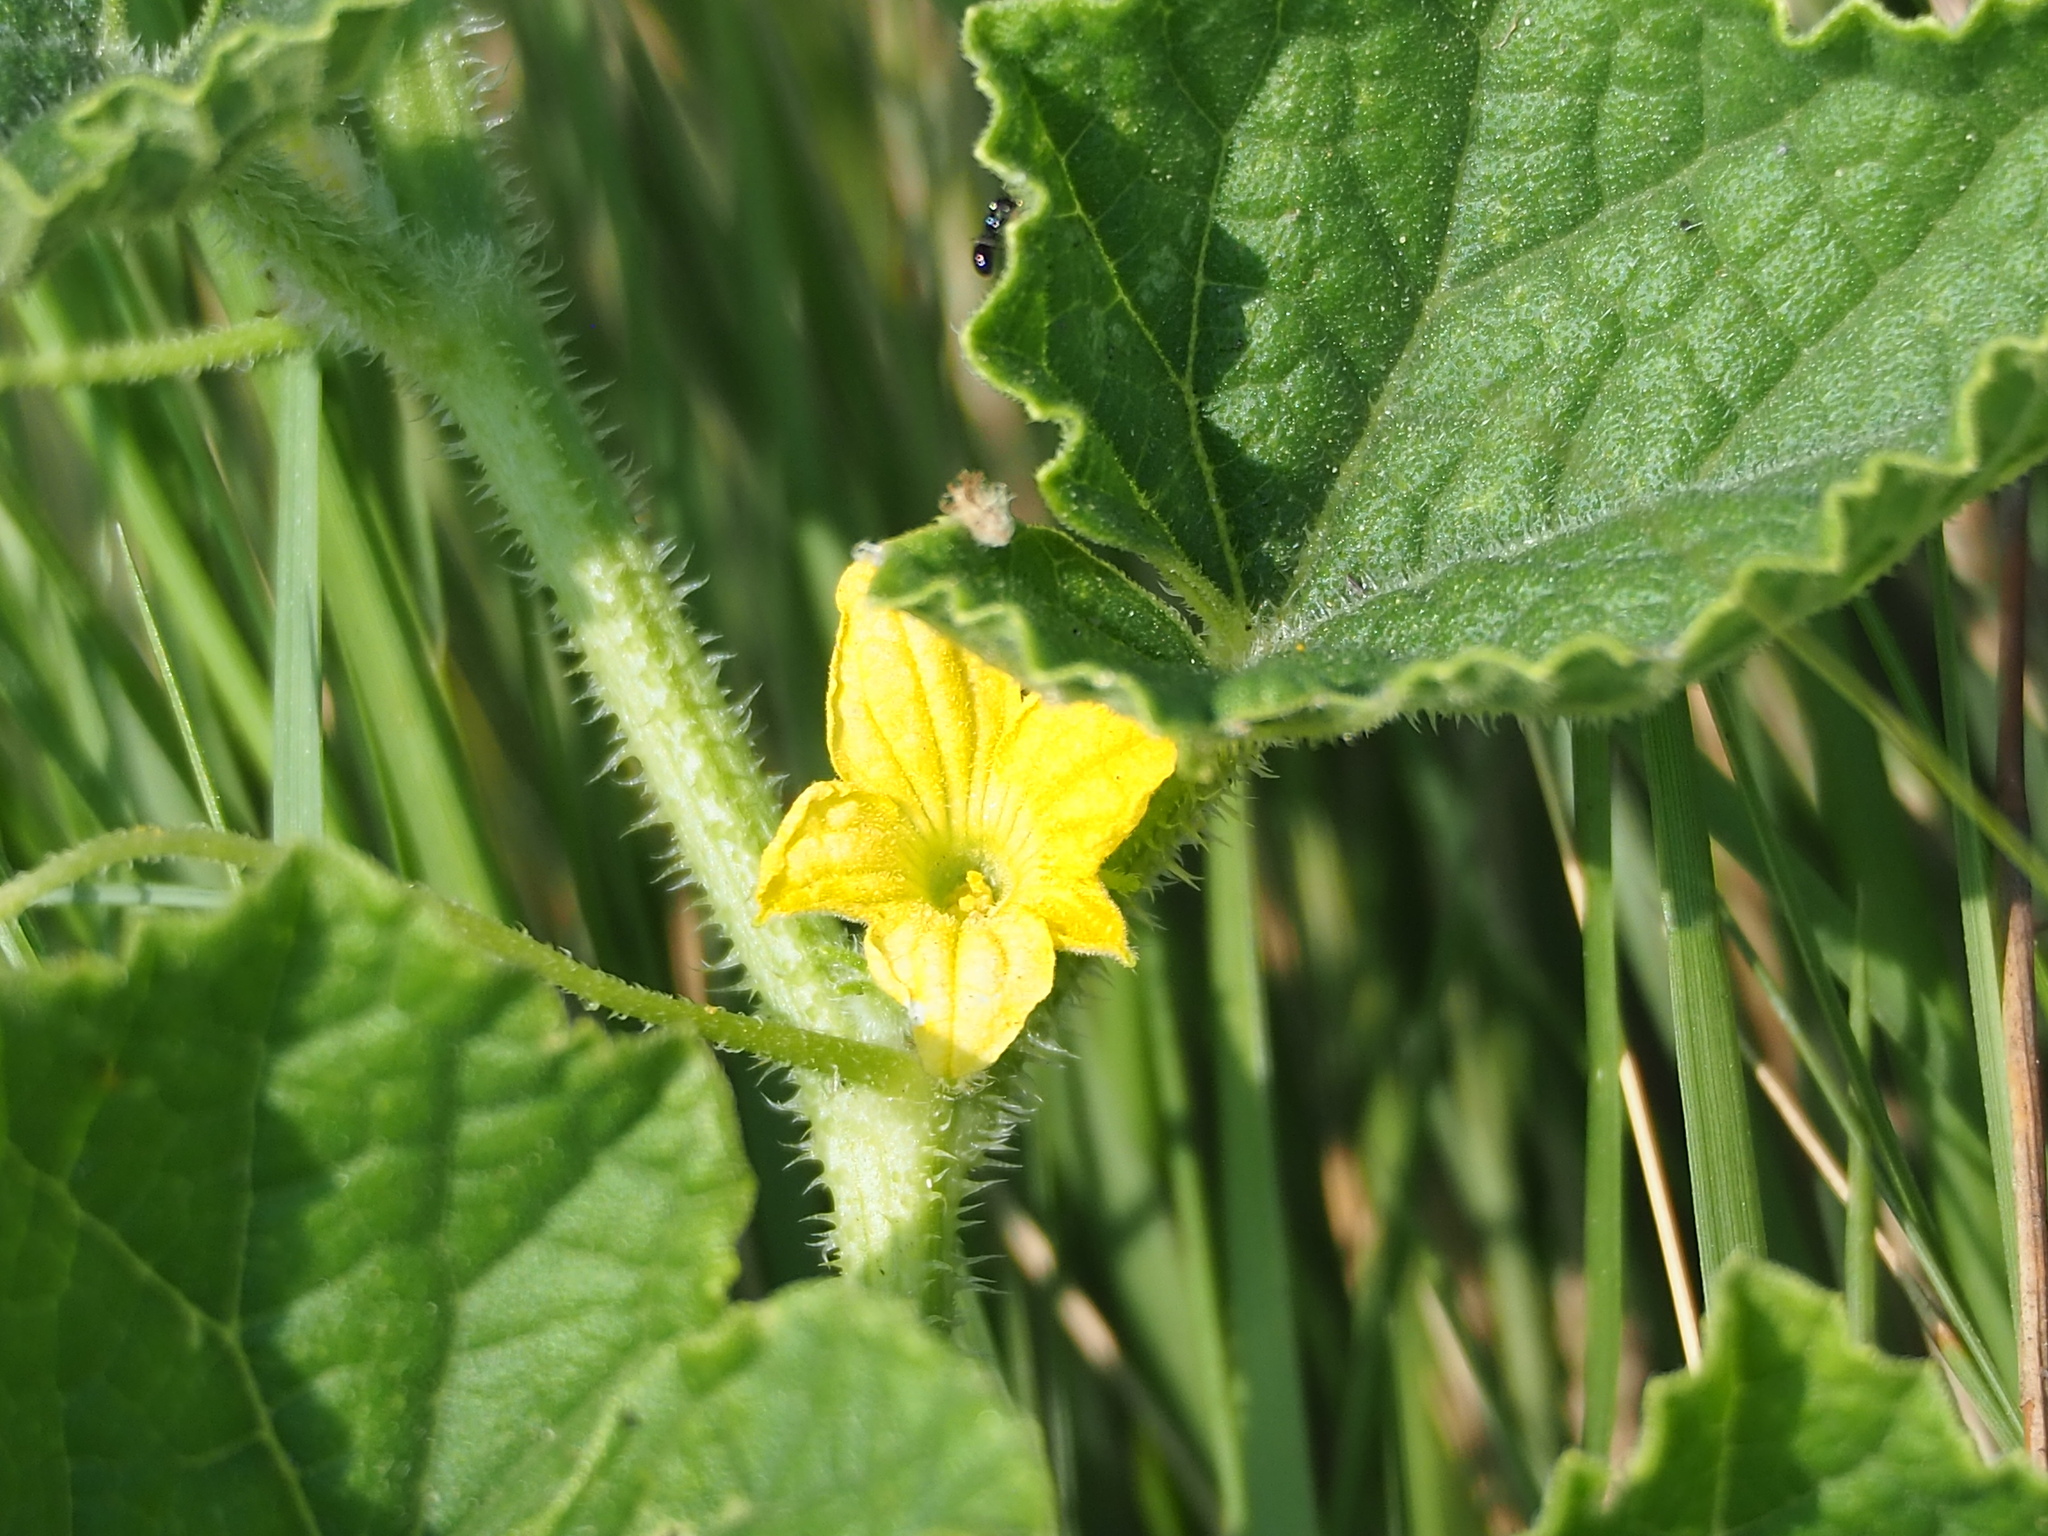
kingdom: Plantae
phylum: Tracheophyta
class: Magnoliopsida
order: Cucurbitales
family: Cucurbitaceae
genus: Cucumis
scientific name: Cucumis melo
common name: Melon
